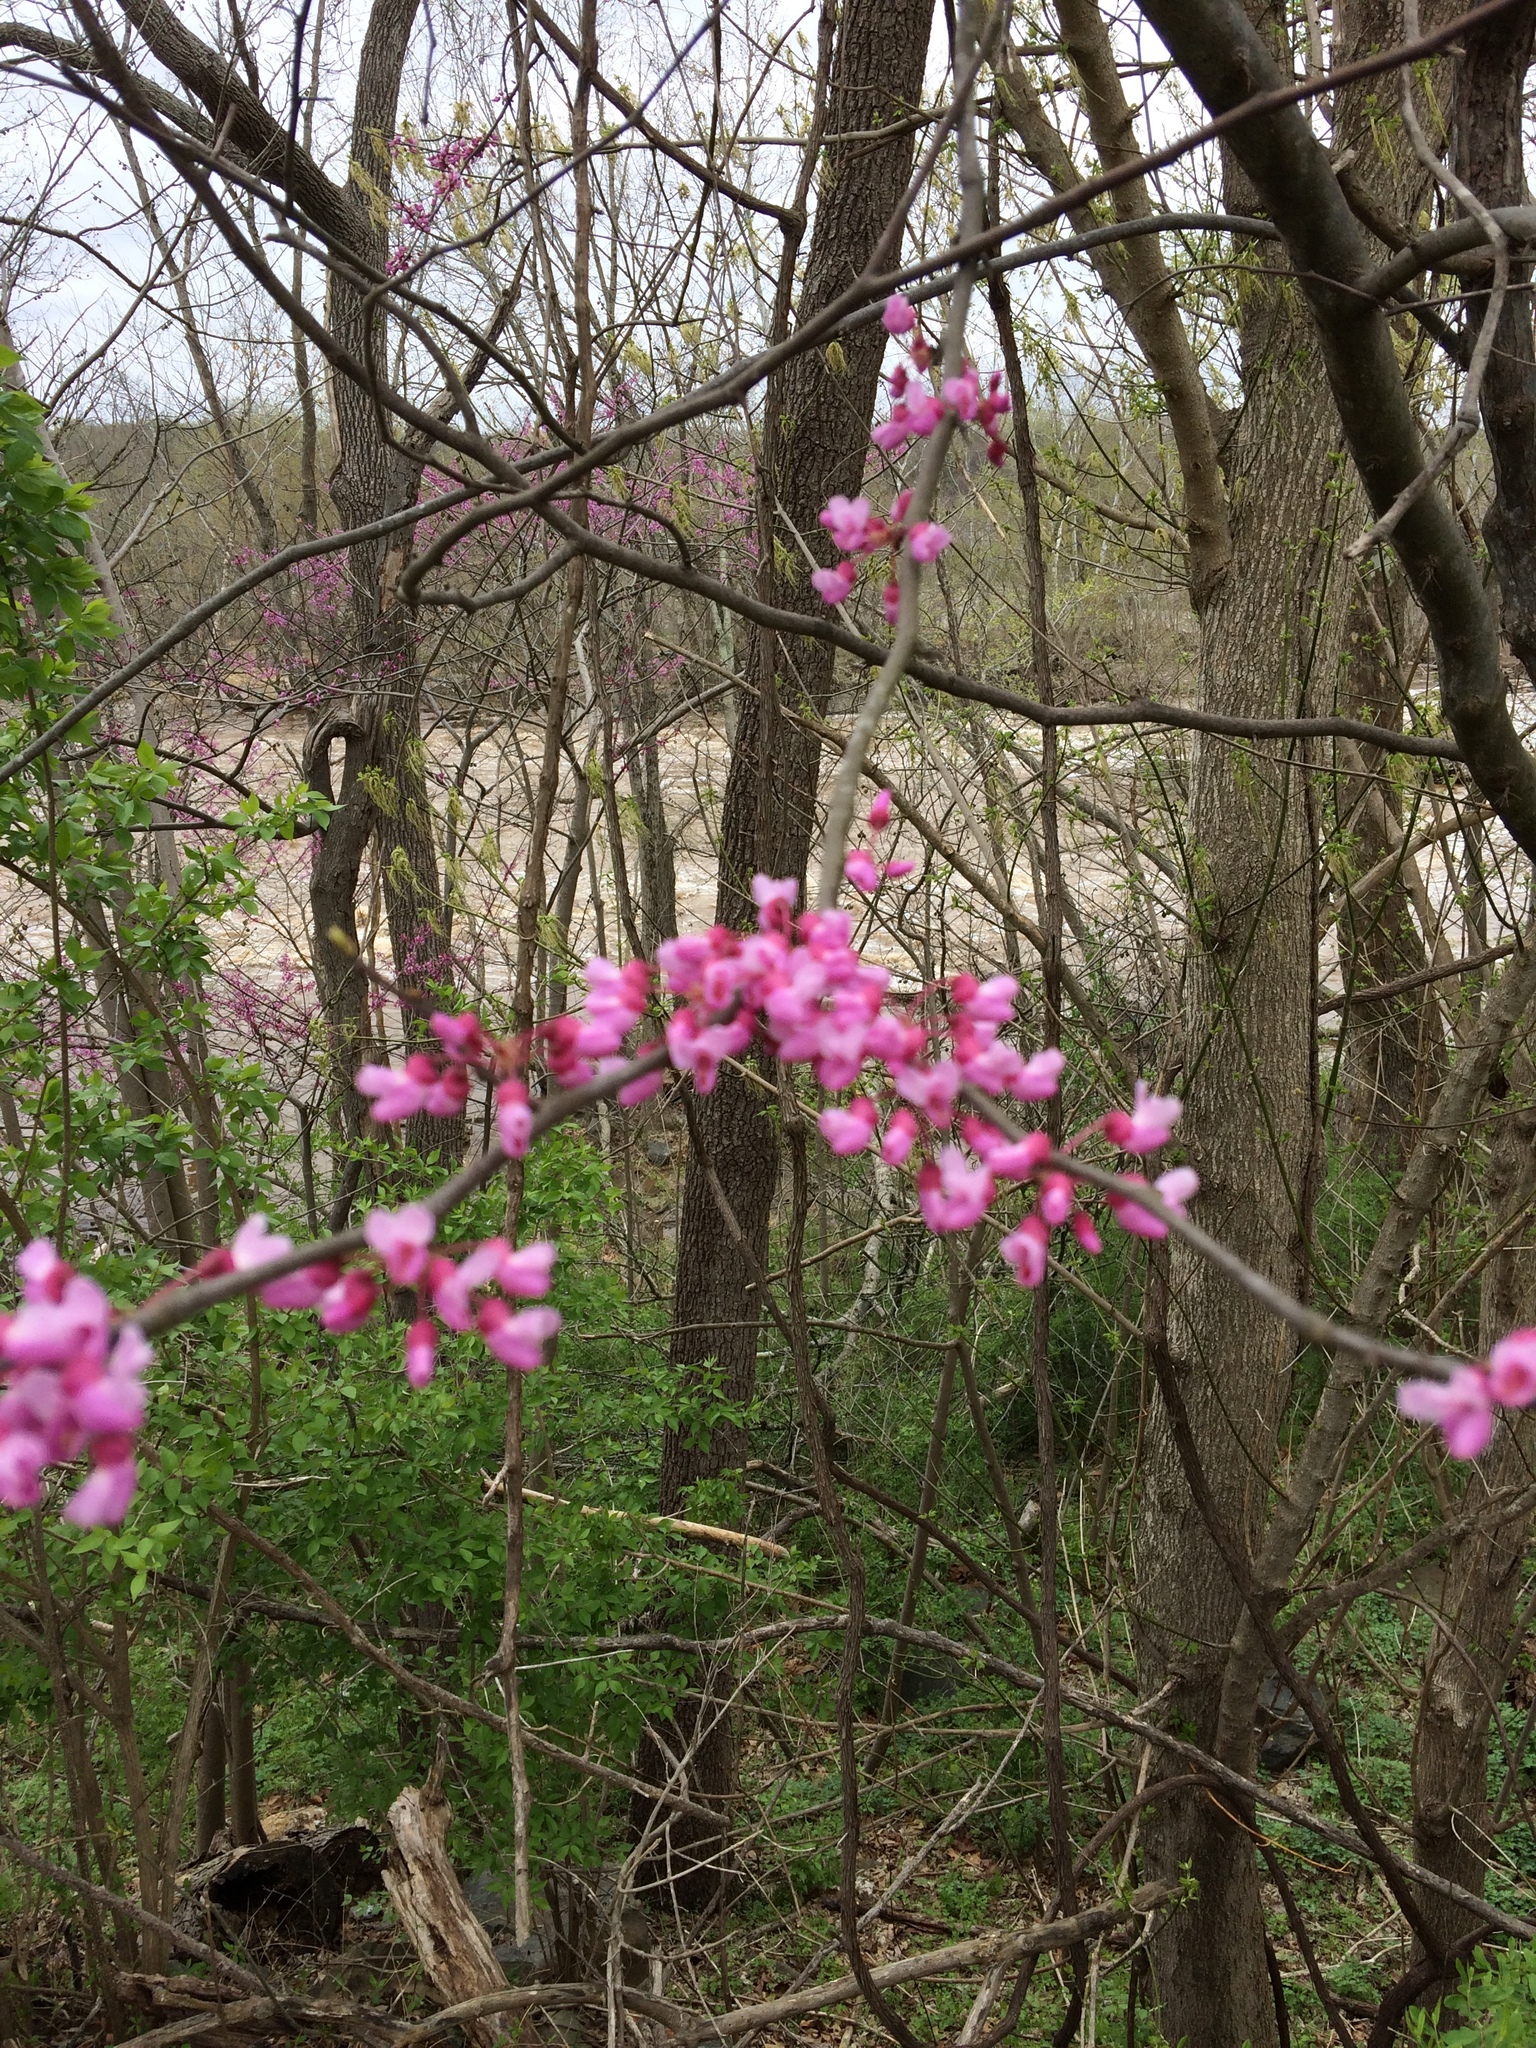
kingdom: Plantae
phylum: Tracheophyta
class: Magnoliopsida
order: Fabales
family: Fabaceae
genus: Cercis
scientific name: Cercis canadensis
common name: Eastern redbud
